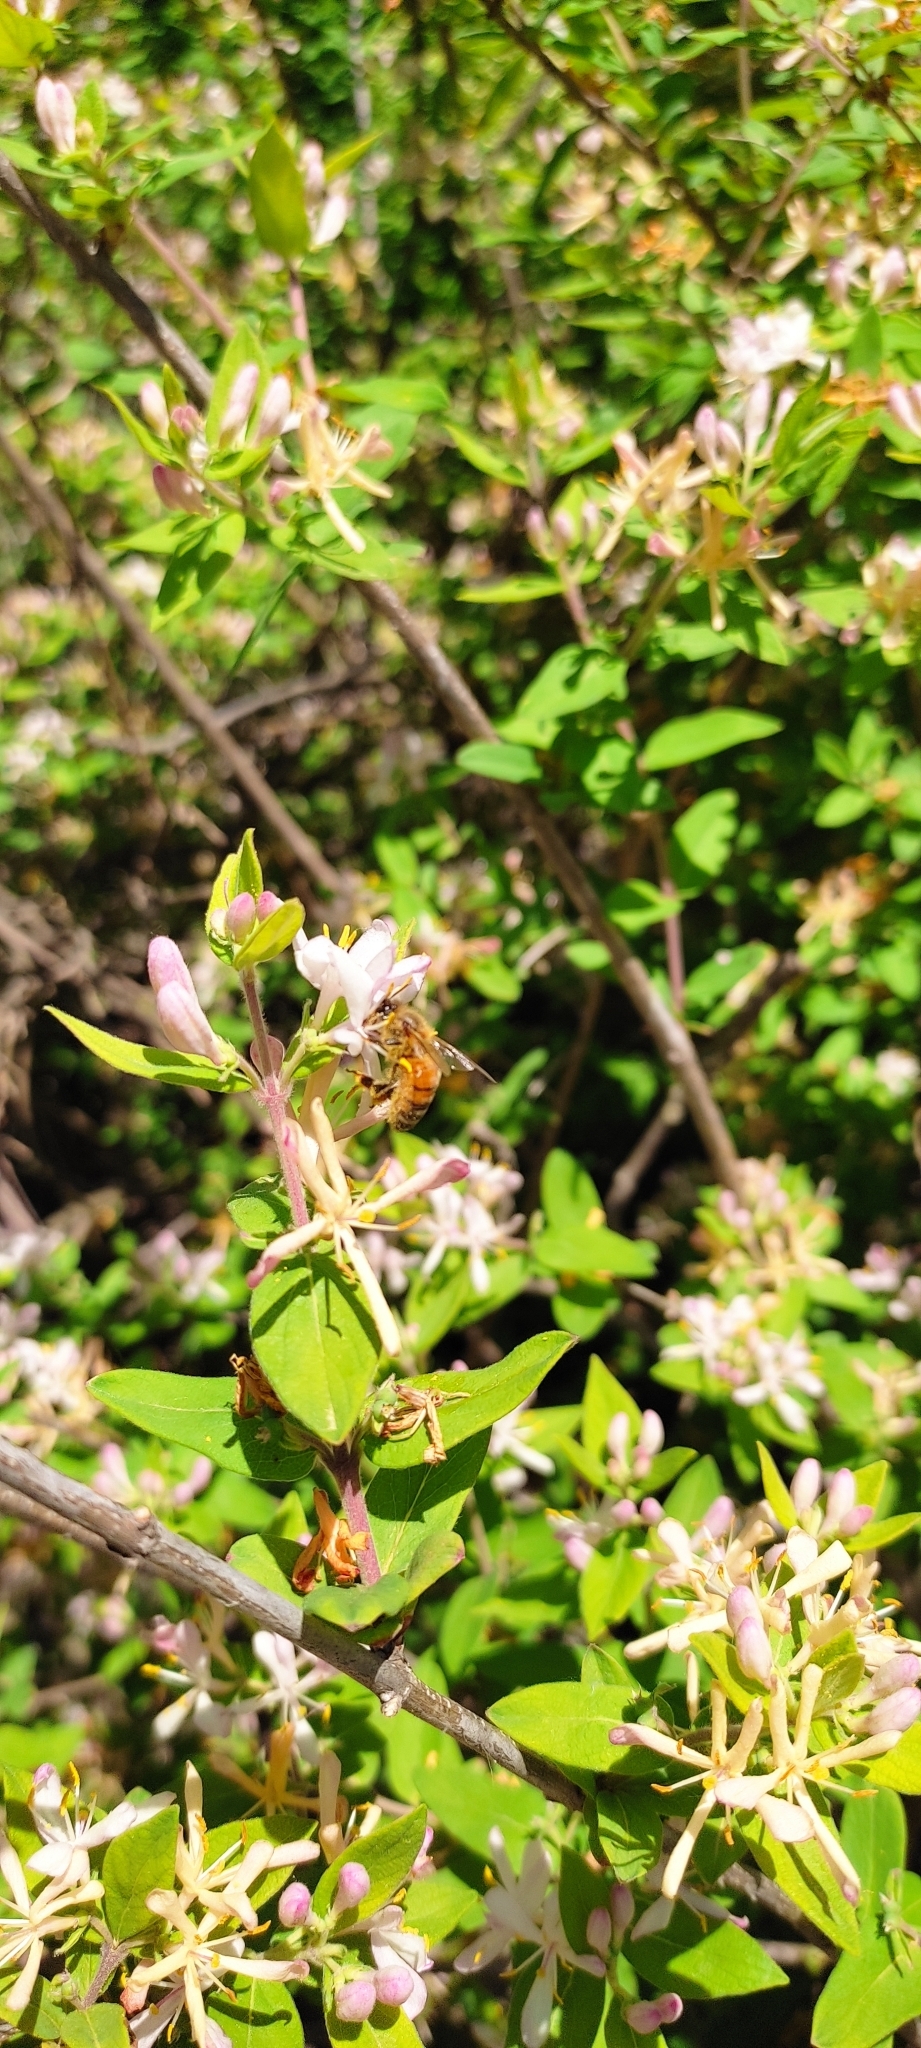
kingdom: Animalia
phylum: Arthropoda
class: Insecta
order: Hymenoptera
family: Apidae
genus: Apis
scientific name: Apis mellifera
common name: Honey bee
